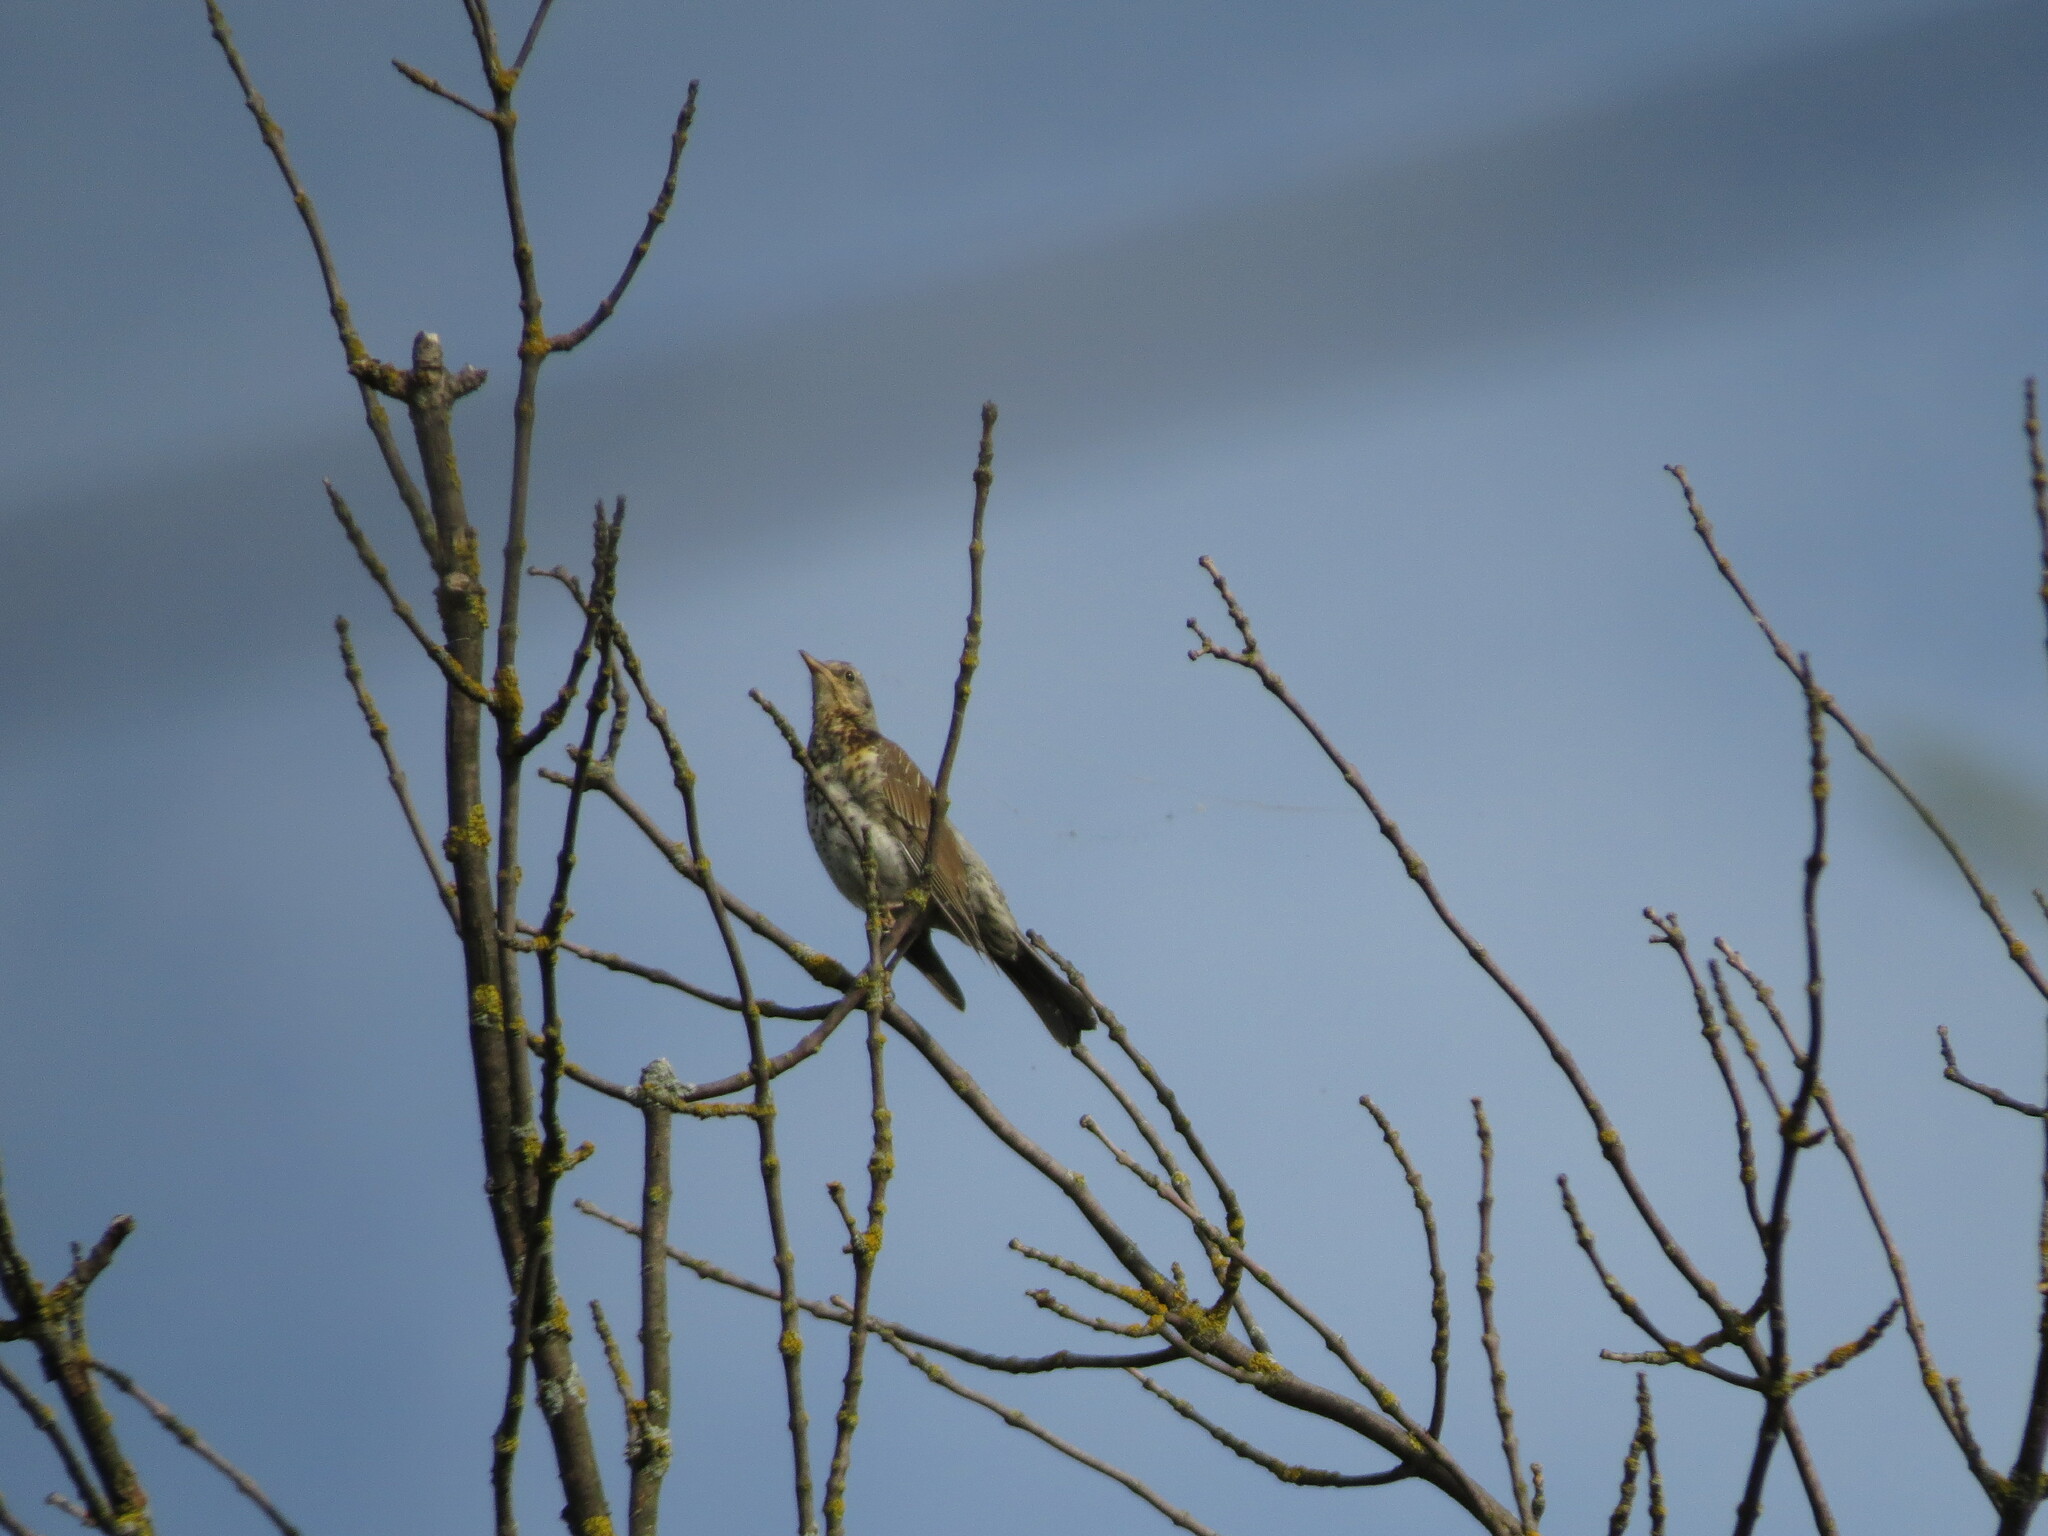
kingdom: Animalia
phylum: Chordata
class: Aves
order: Passeriformes
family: Turdidae
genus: Turdus
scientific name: Turdus pilaris
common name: Fieldfare
